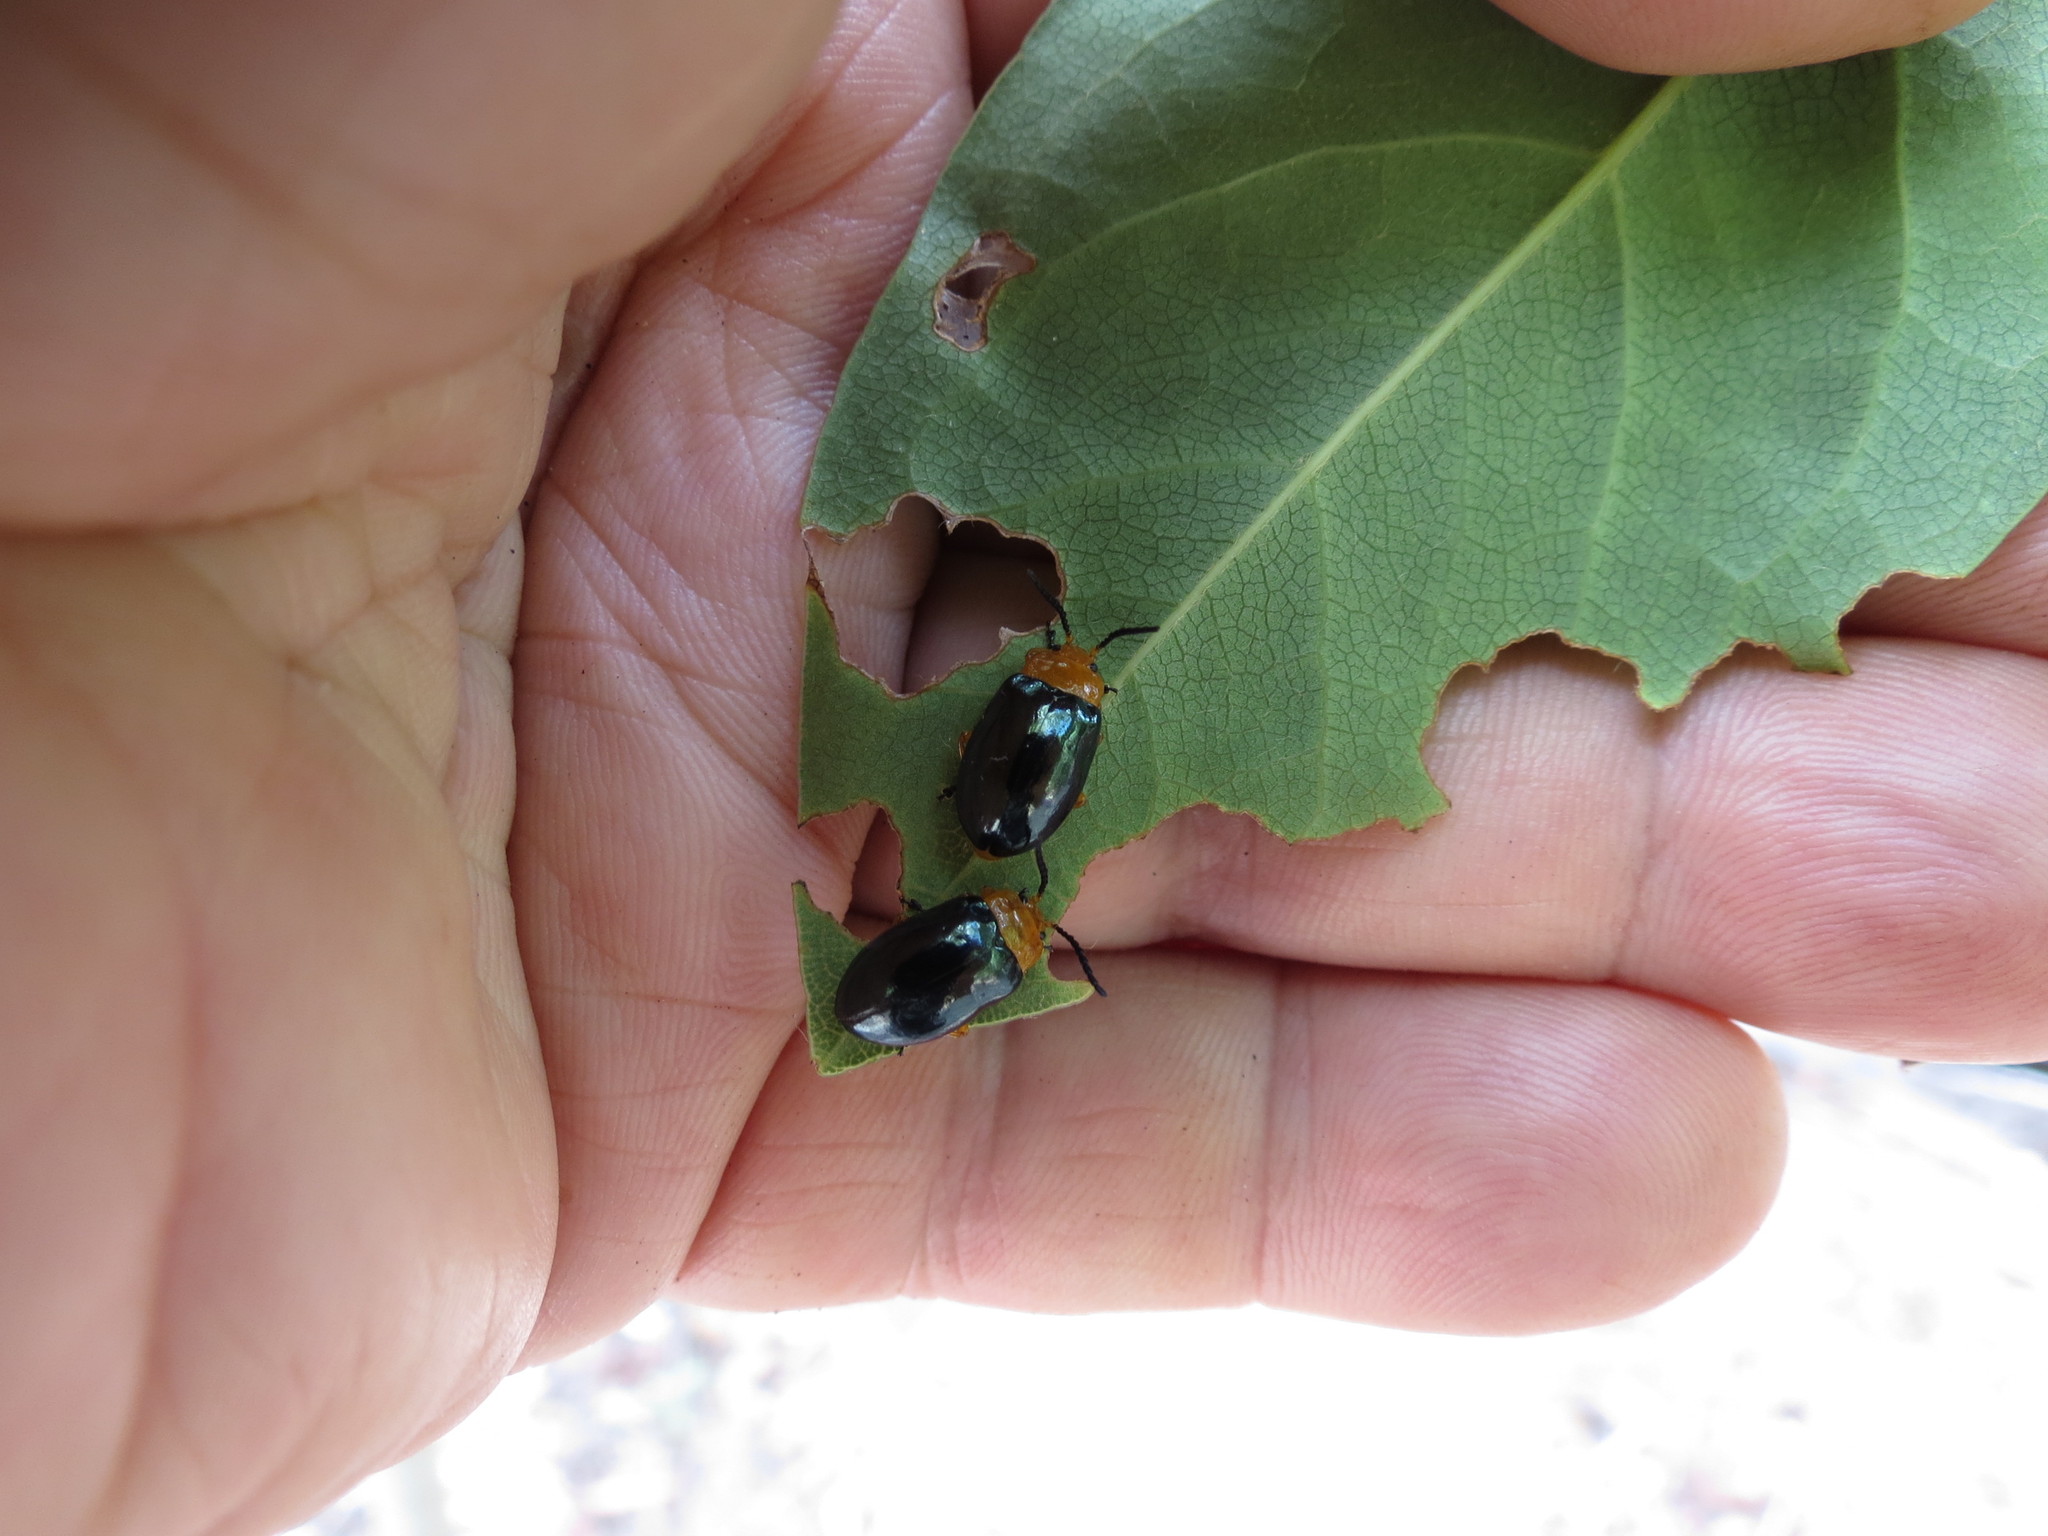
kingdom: Animalia
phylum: Arthropoda
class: Insecta
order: Coleoptera
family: Chrysomelidae
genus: Lamprolina
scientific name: Lamprolina
